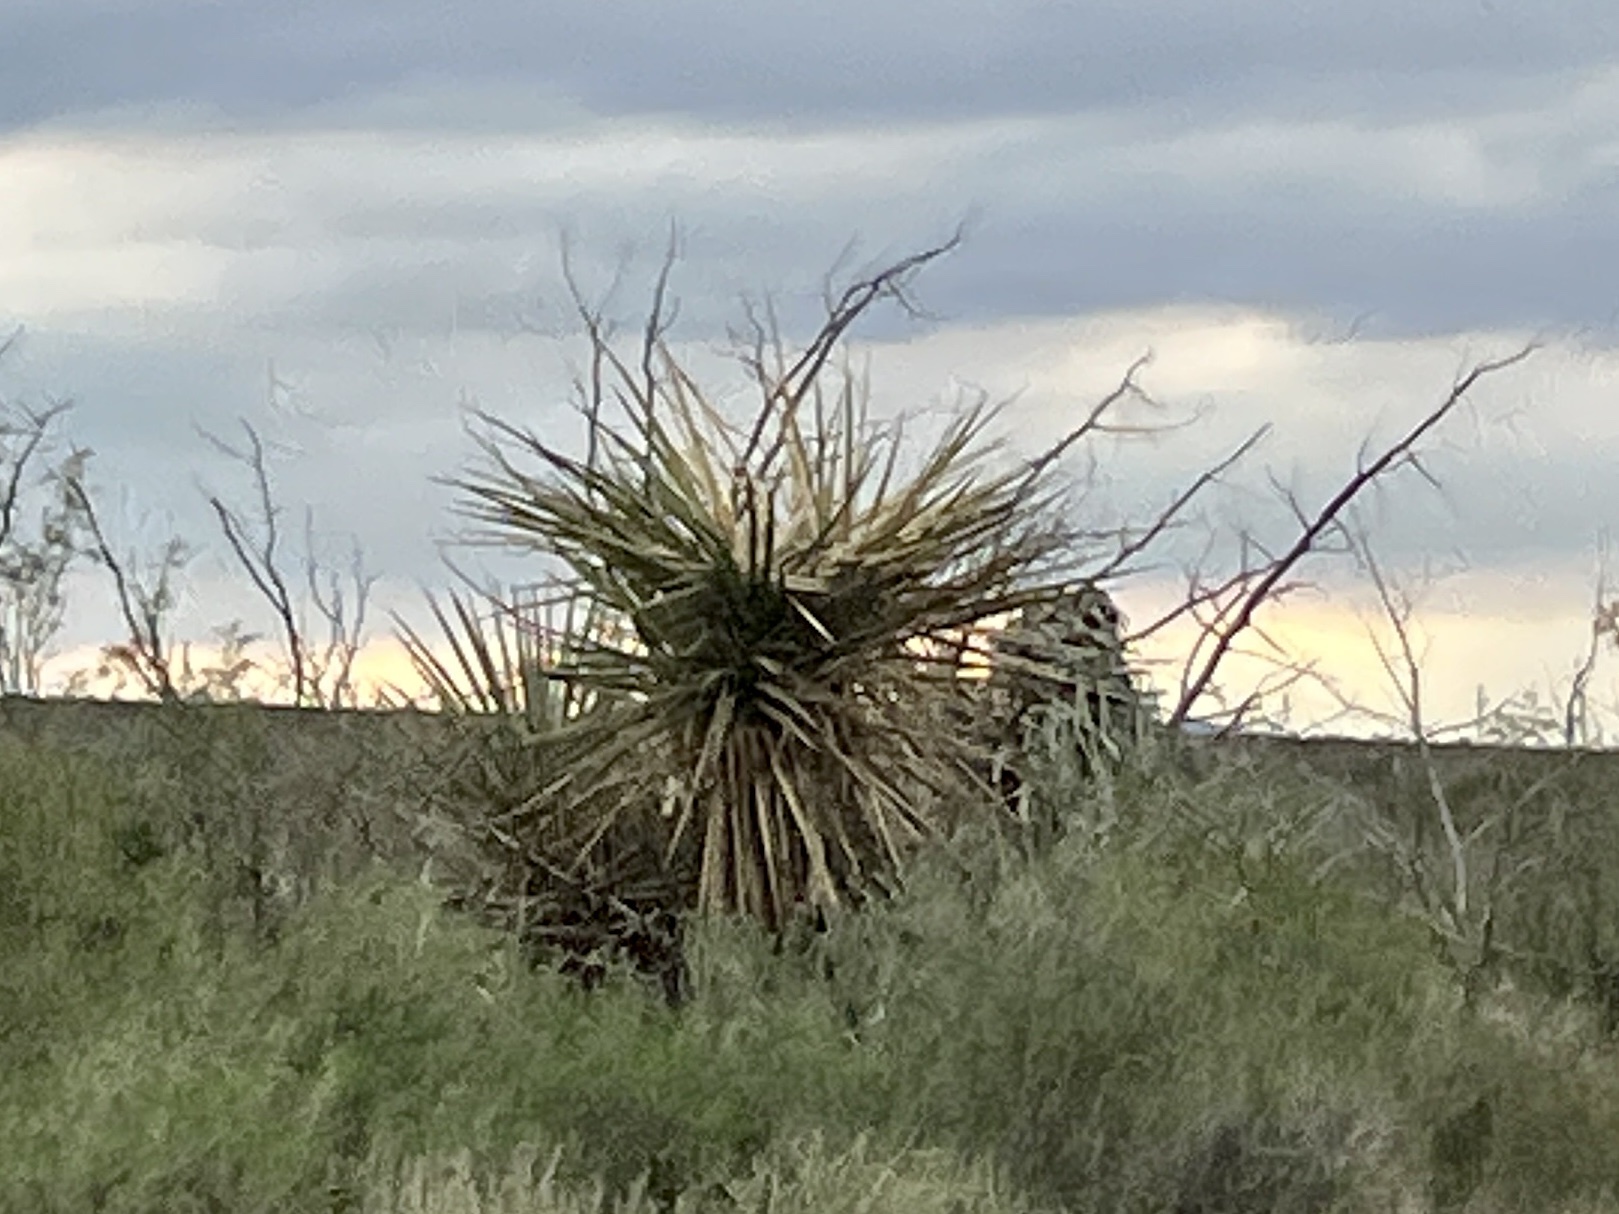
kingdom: Plantae
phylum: Tracheophyta
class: Liliopsida
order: Asparagales
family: Asparagaceae
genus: Yucca
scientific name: Yucca treculiana
